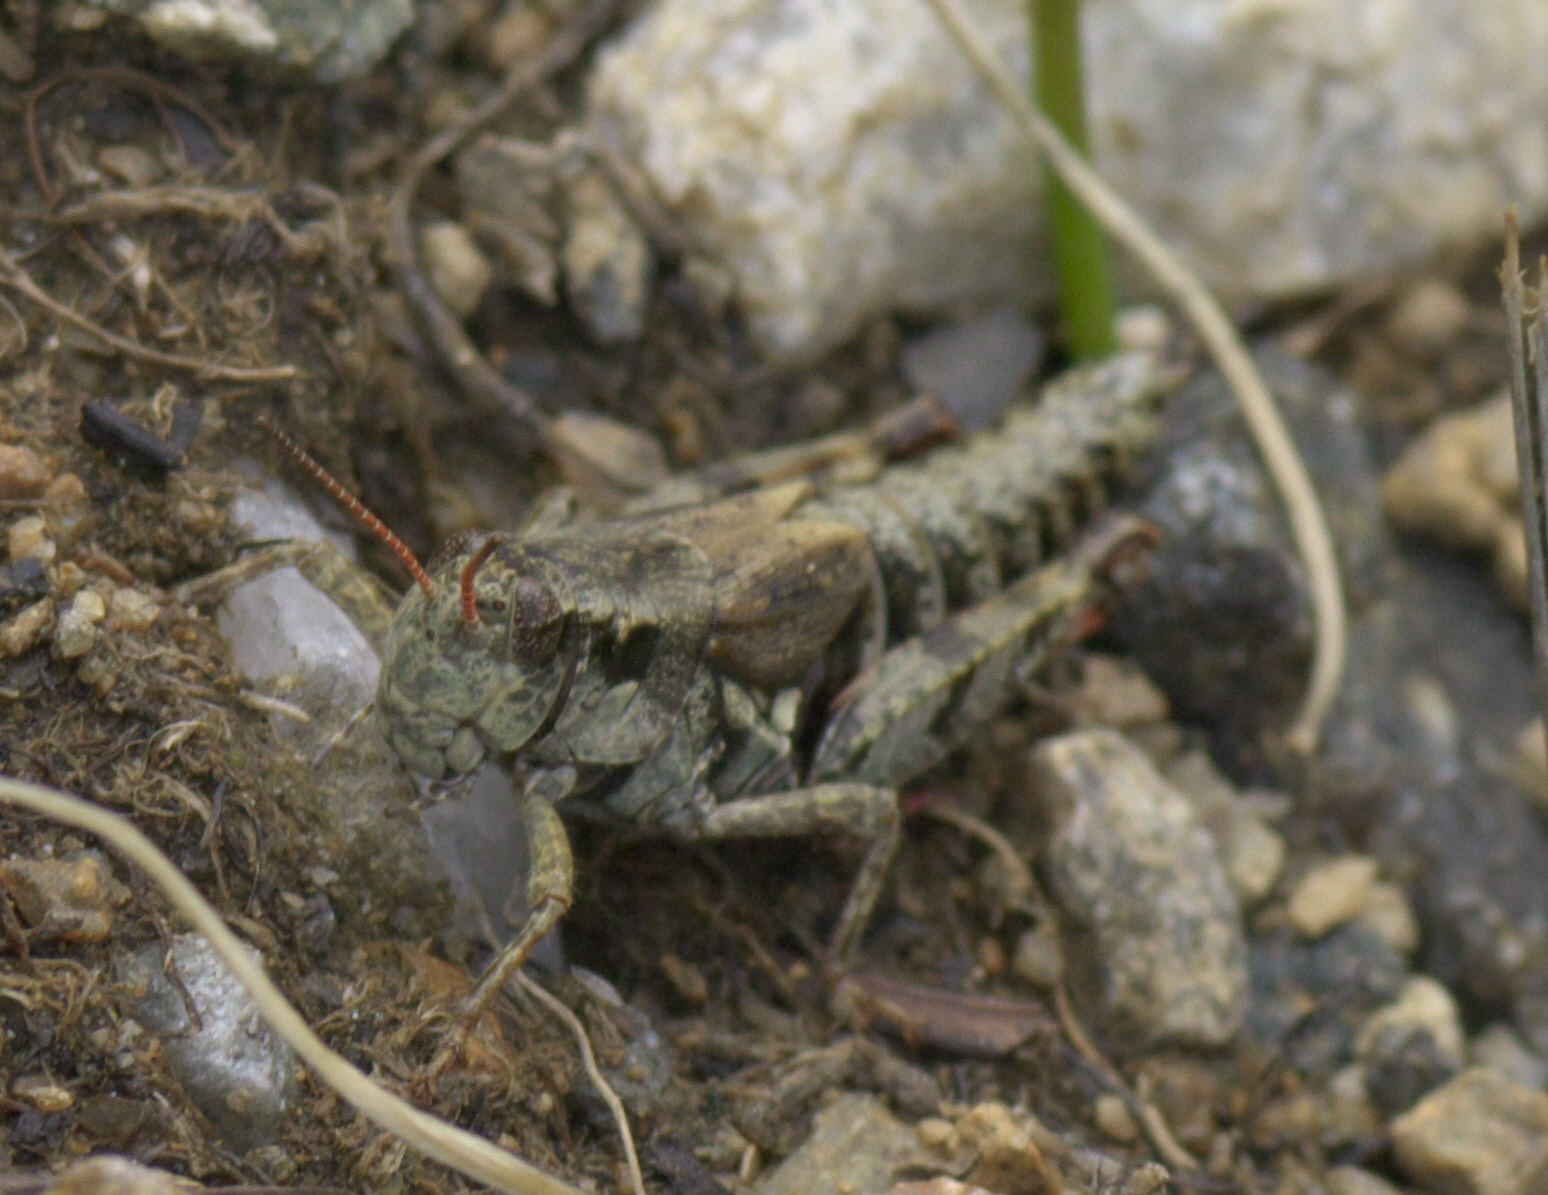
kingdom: Animalia
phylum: Arthropoda
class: Insecta
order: Orthoptera
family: Acrididae
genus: Melanoplus
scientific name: Melanoplus gothicus
